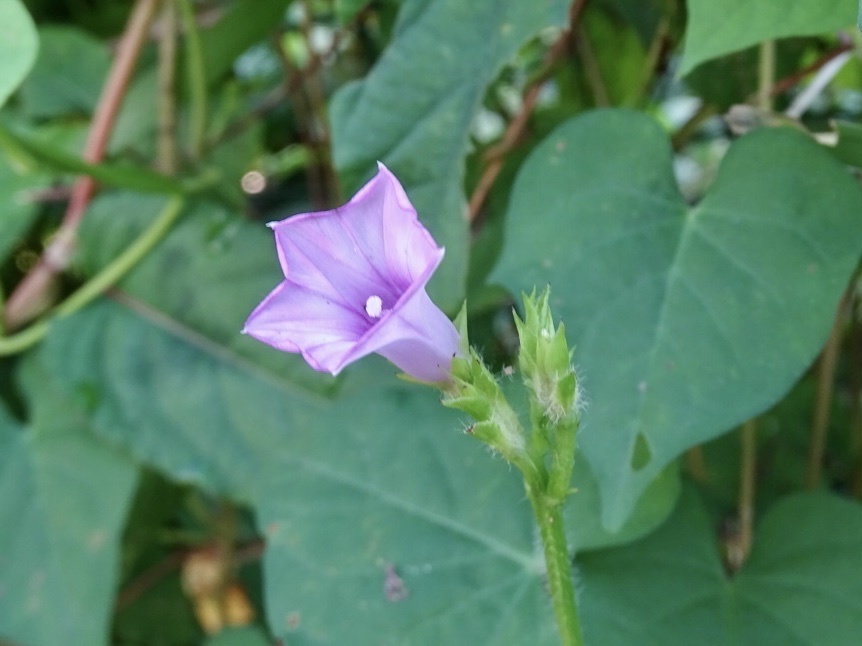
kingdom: Plantae
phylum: Tracheophyta
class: Magnoliopsida
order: Solanales
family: Convolvulaceae
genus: Ipomoea
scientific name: Ipomoea triloba
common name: Little-bell
